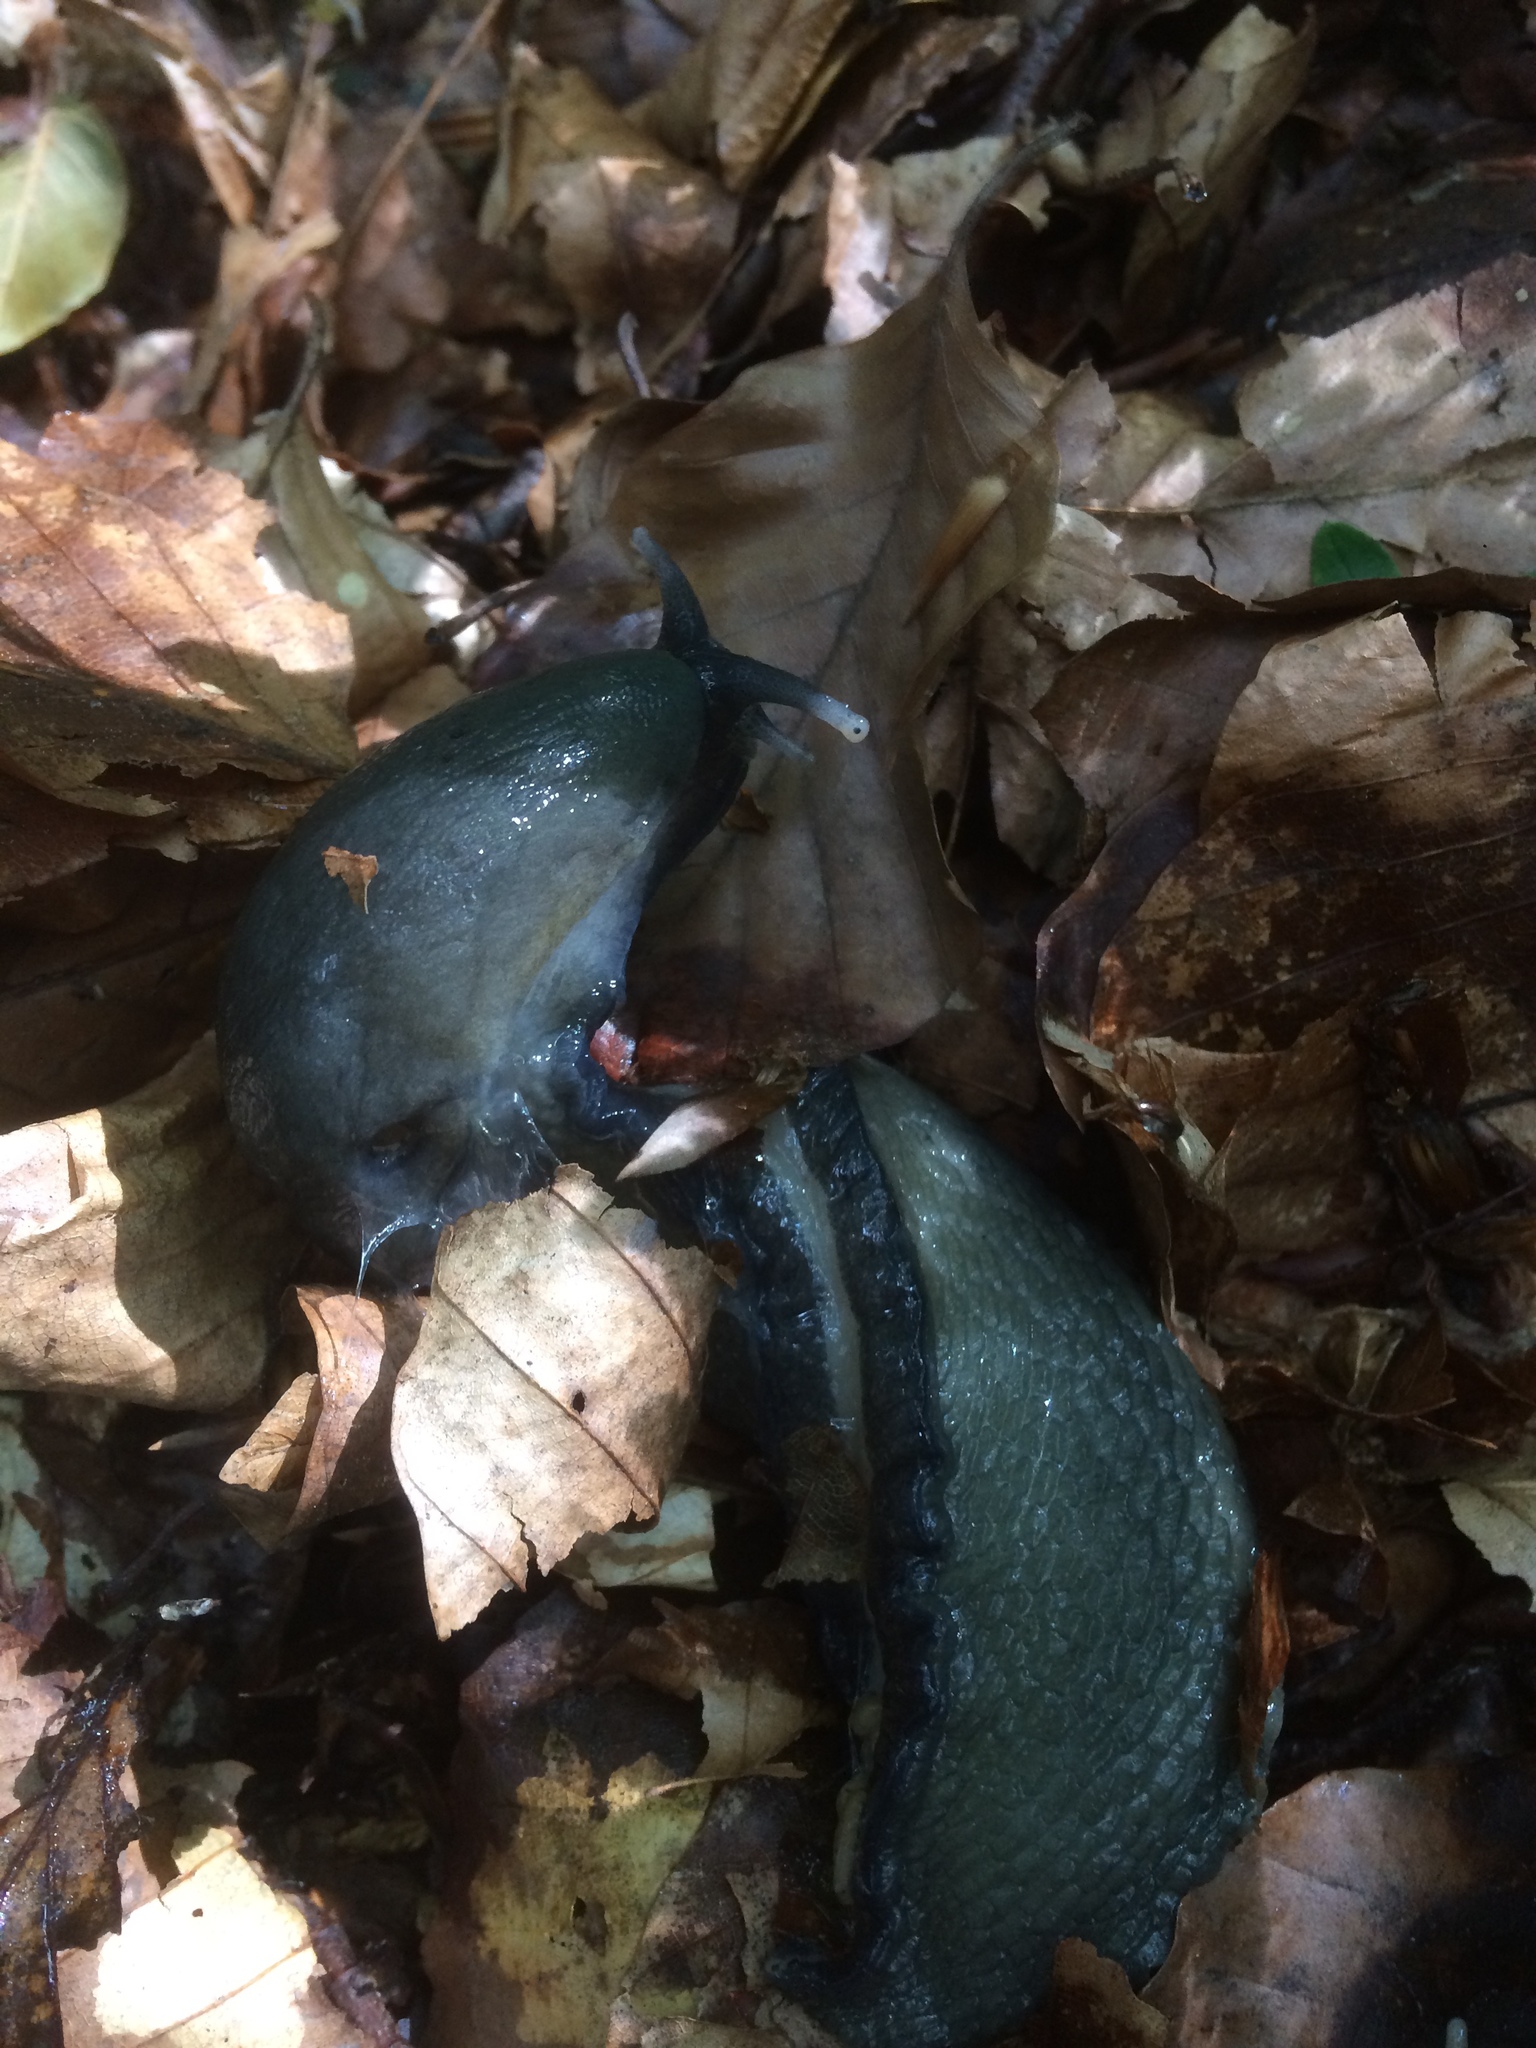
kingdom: Animalia
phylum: Mollusca
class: Gastropoda
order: Stylommatophora
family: Limacidae
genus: Limax
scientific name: Limax cinereoniger
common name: Ash-black slug
